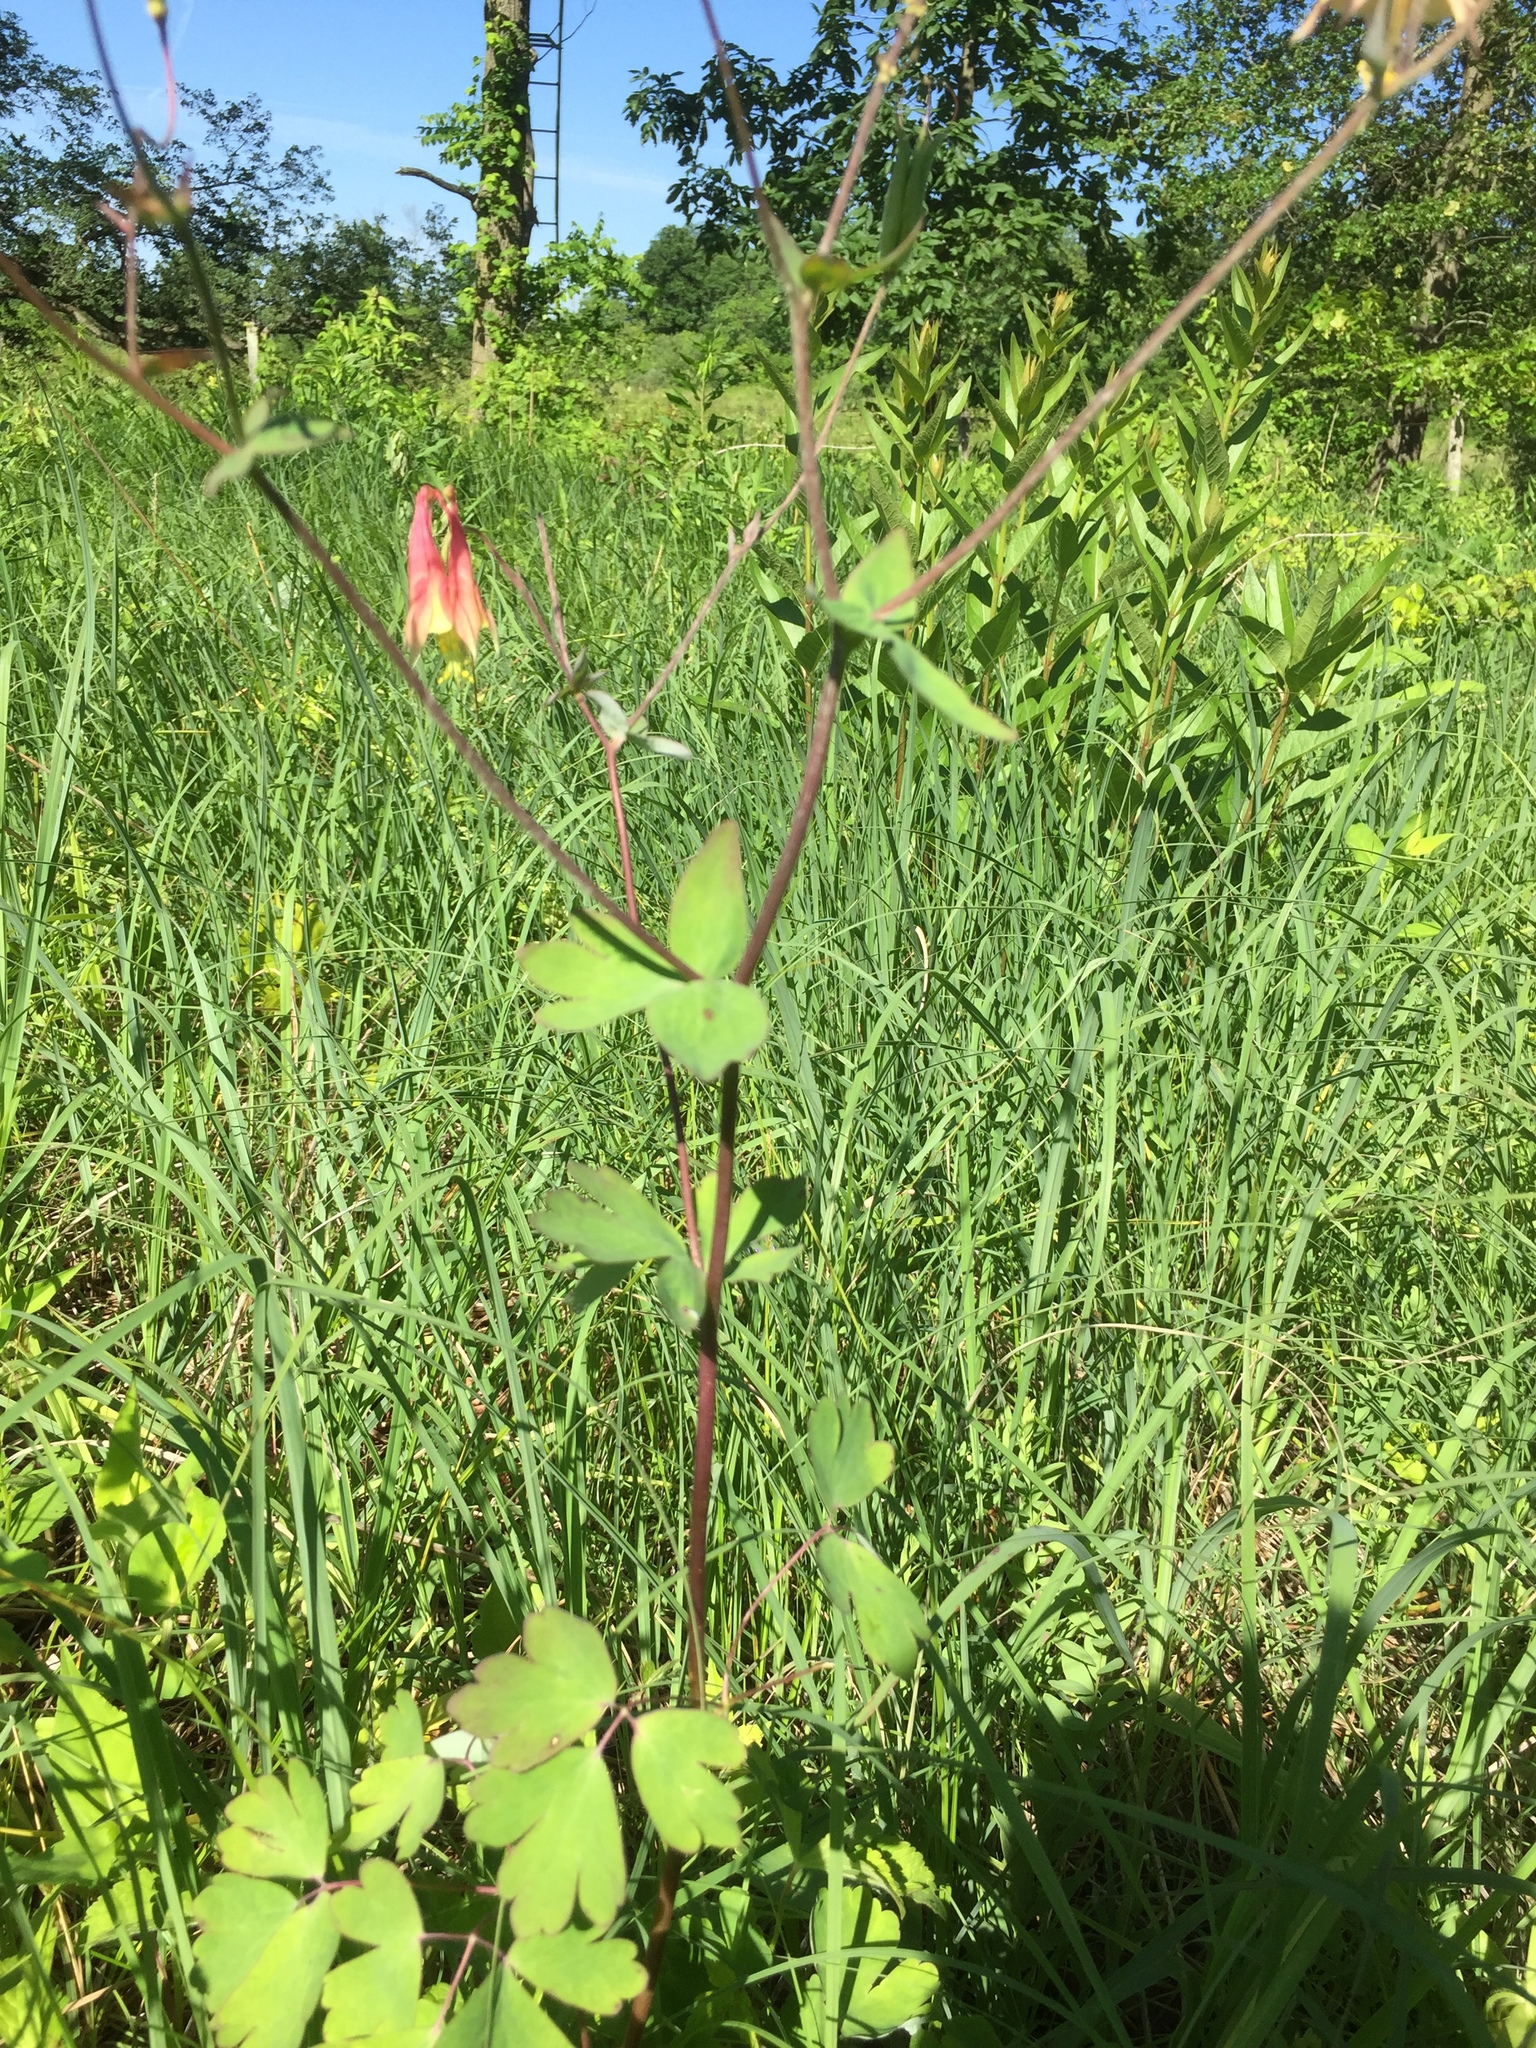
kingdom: Plantae
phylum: Tracheophyta
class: Magnoliopsida
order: Ranunculales
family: Ranunculaceae
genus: Aquilegia
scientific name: Aquilegia canadensis
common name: American columbine
